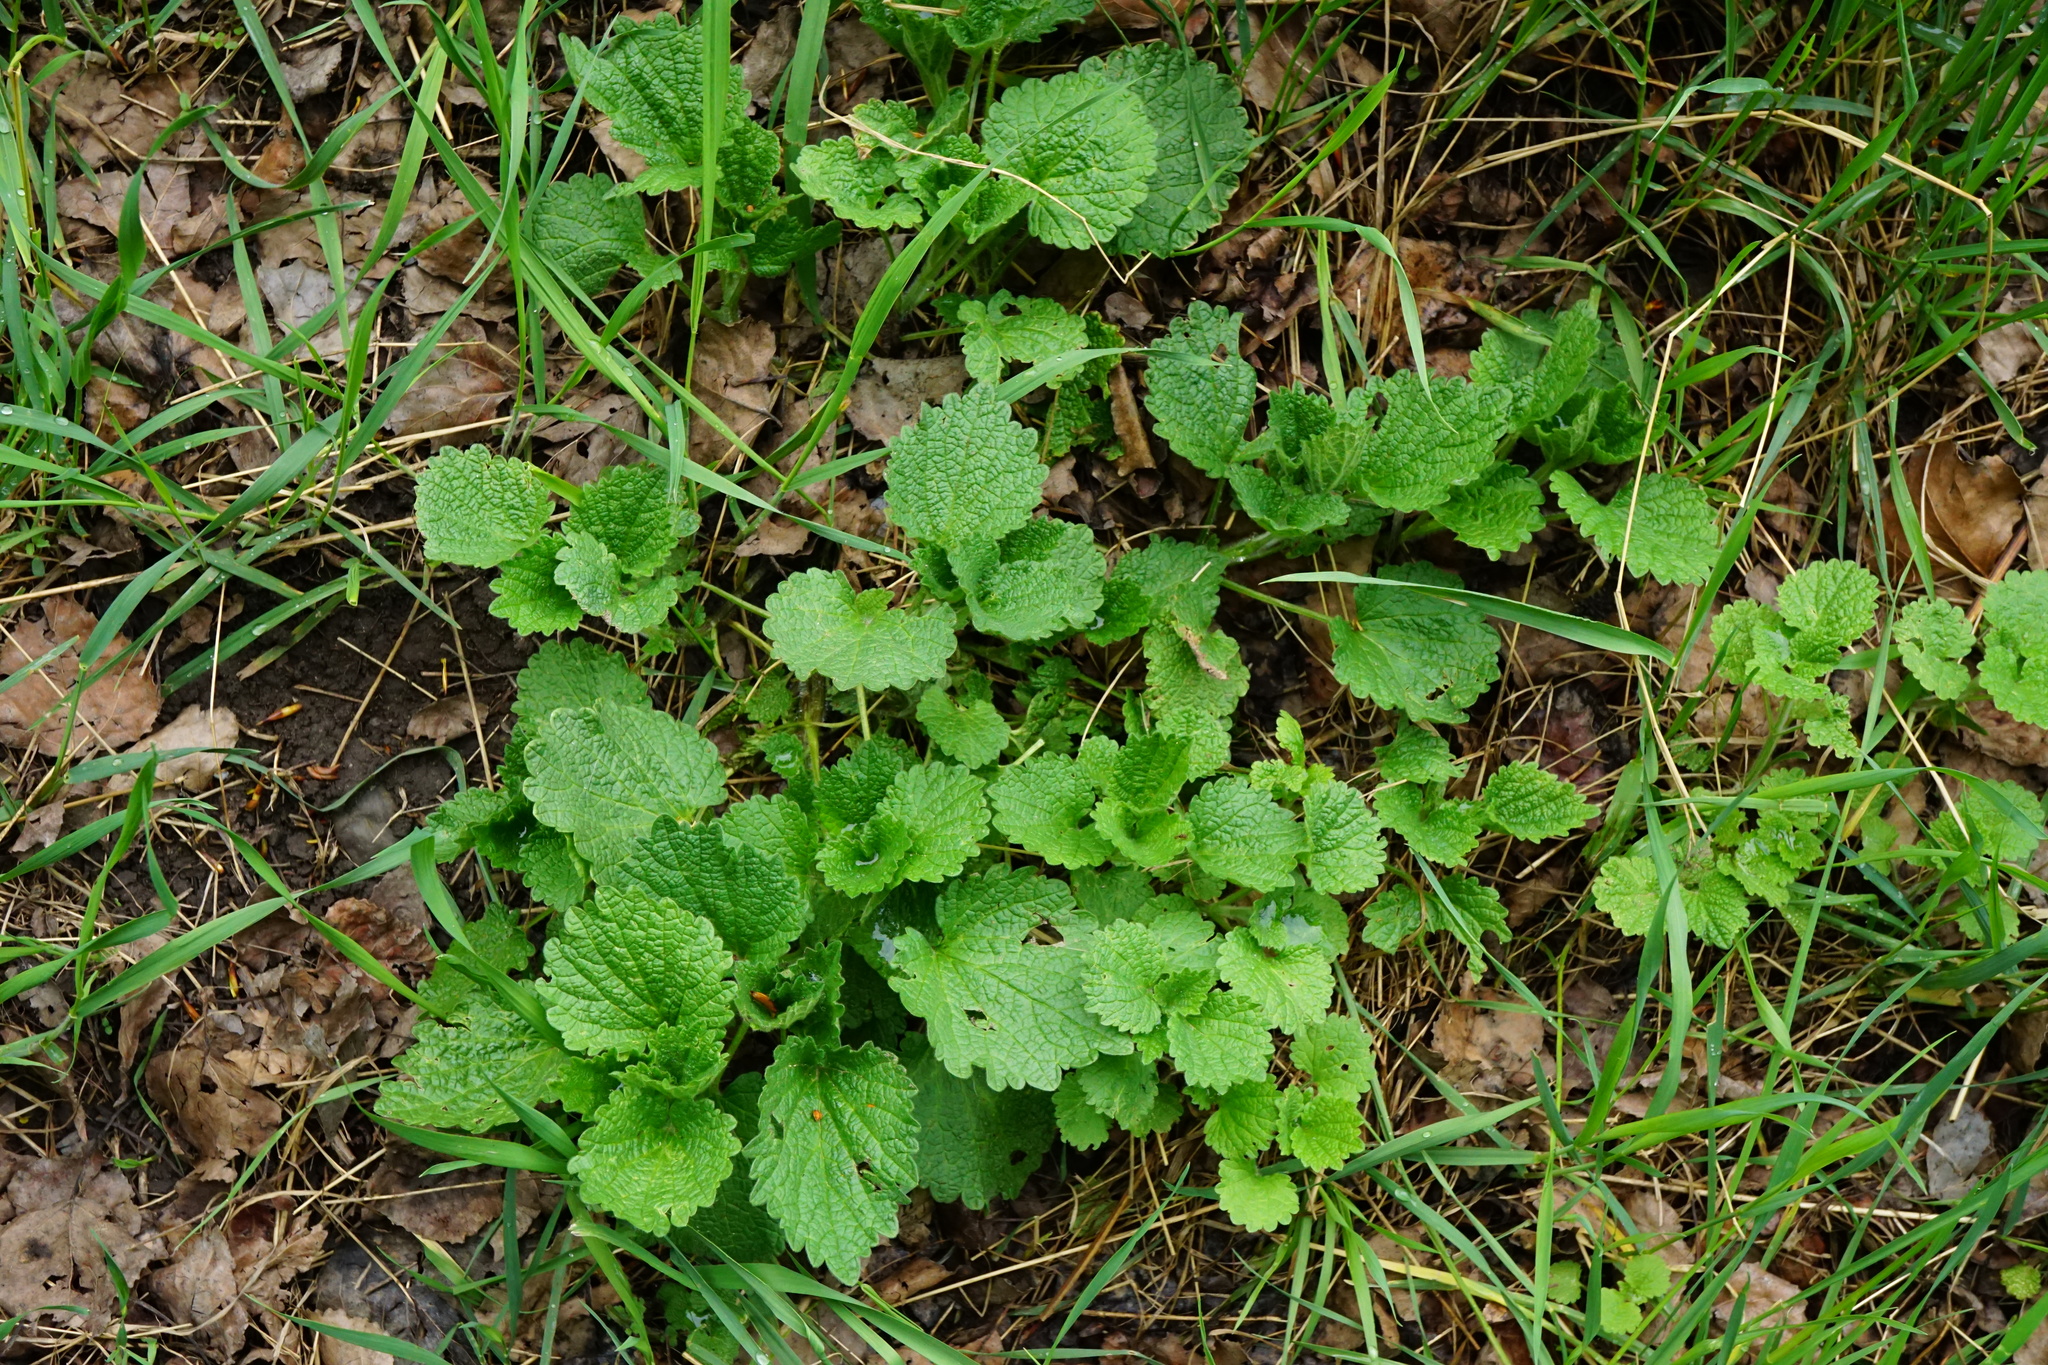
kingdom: Plantae
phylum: Tracheophyta
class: Magnoliopsida
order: Lamiales
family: Lamiaceae
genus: Ballota
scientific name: Ballota nigra
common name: Black horehound
